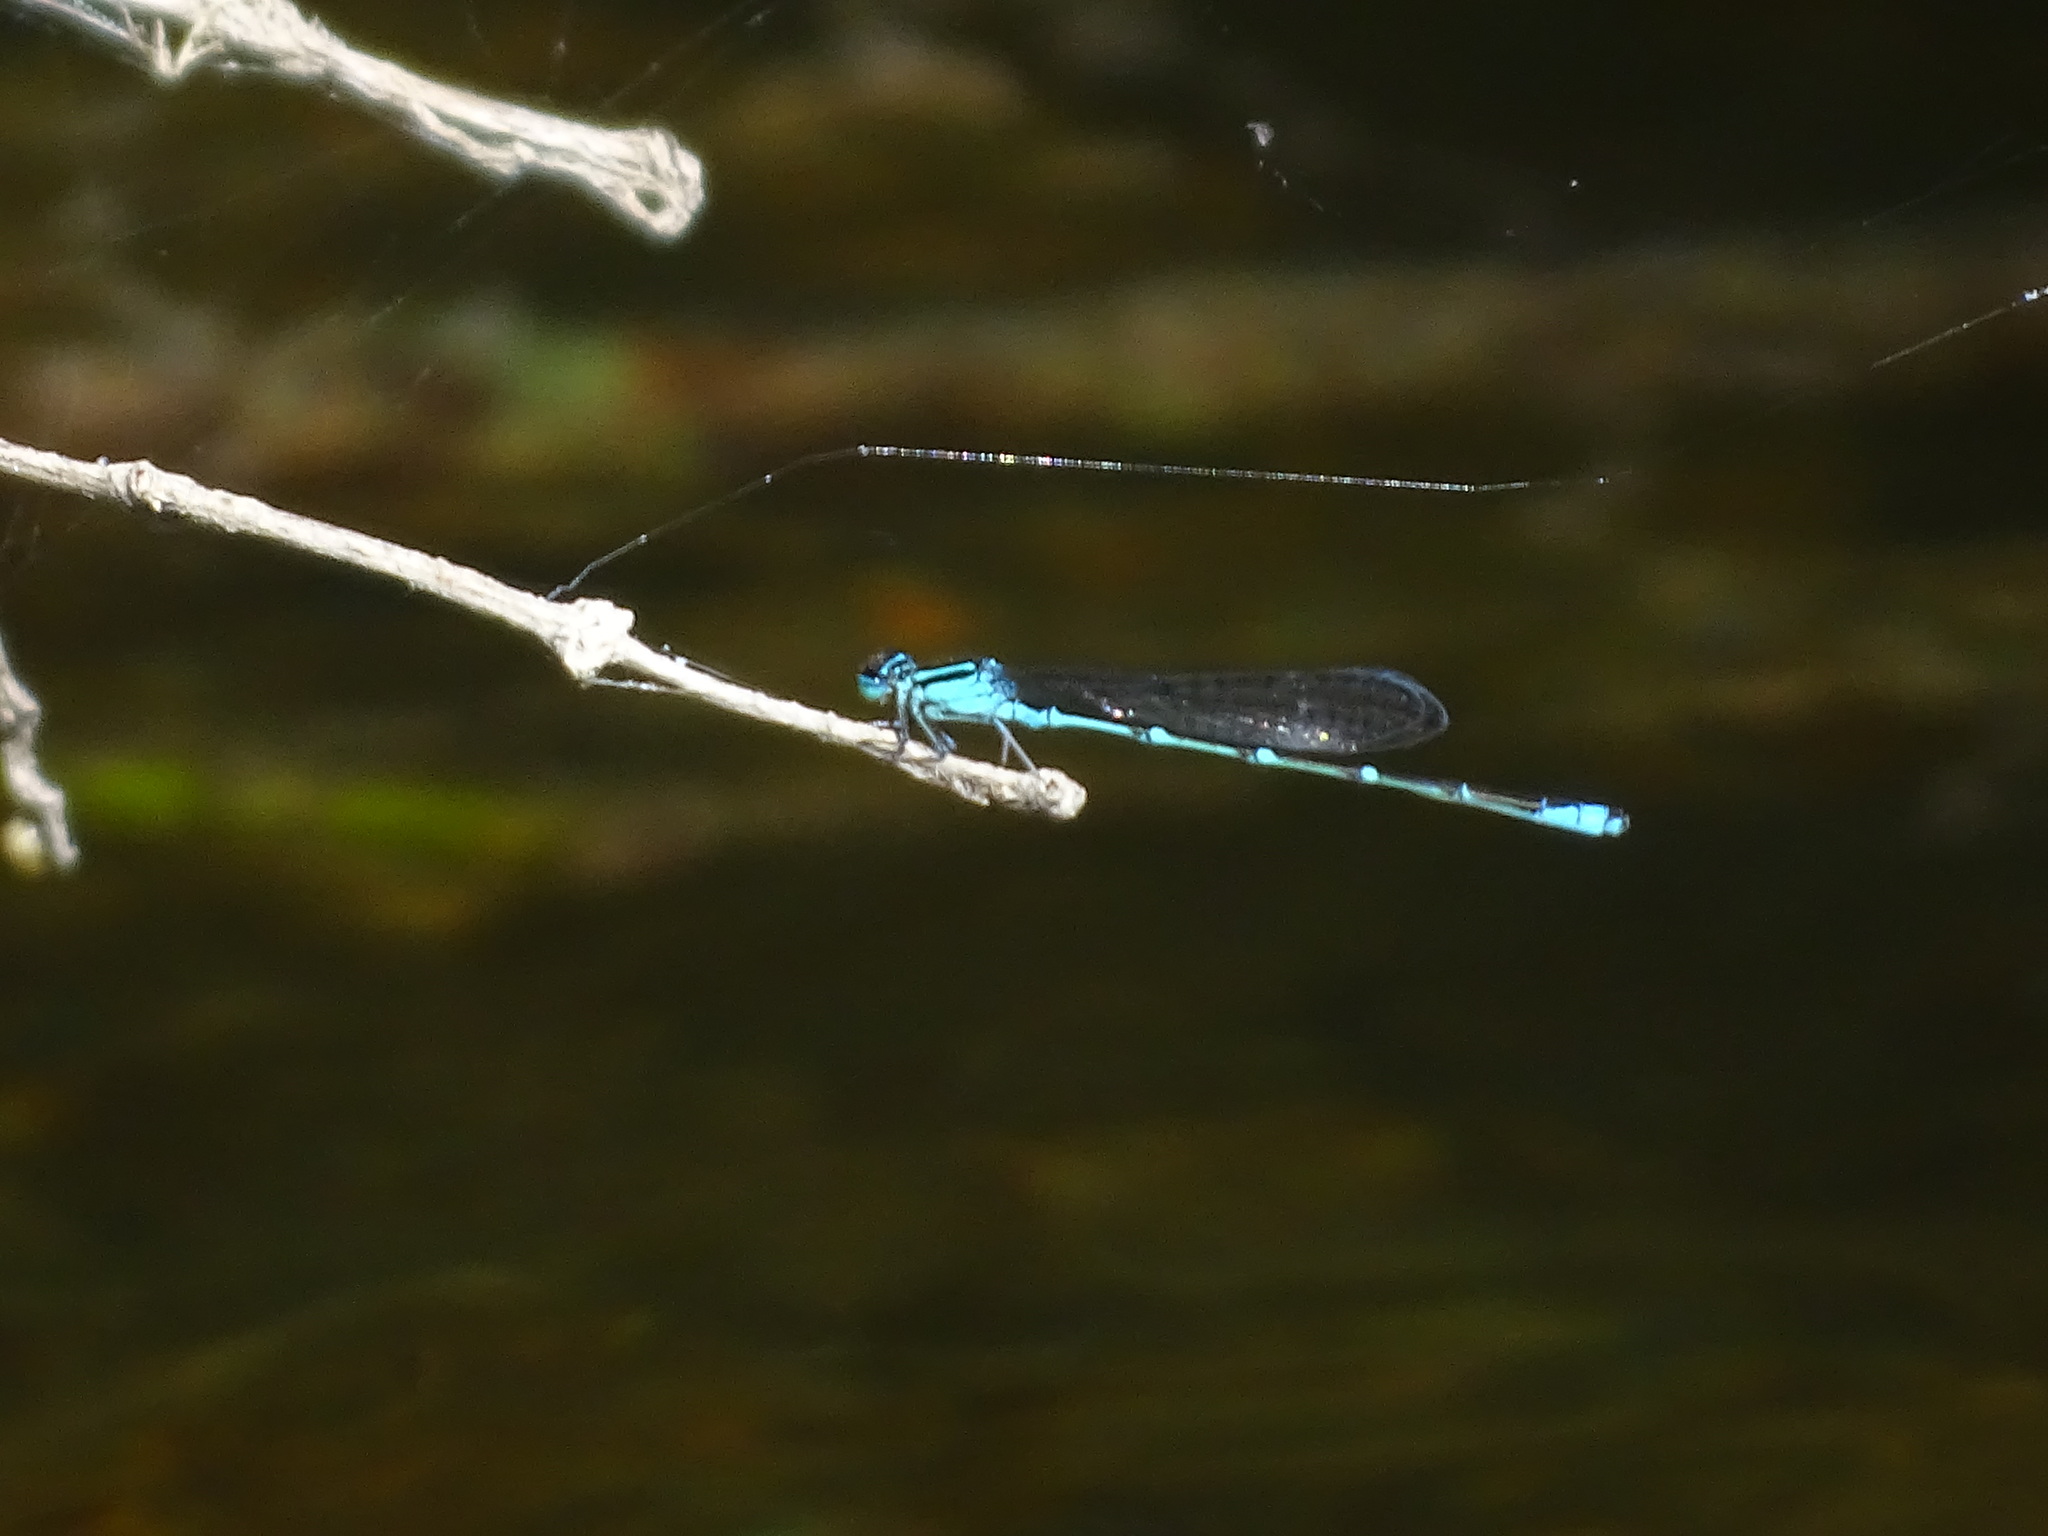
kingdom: Animalia
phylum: Arthropoda
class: Insecta
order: Odonata
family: Coenagrionidae
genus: Enallagma
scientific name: Enallagma exsulans
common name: Stream bluet
